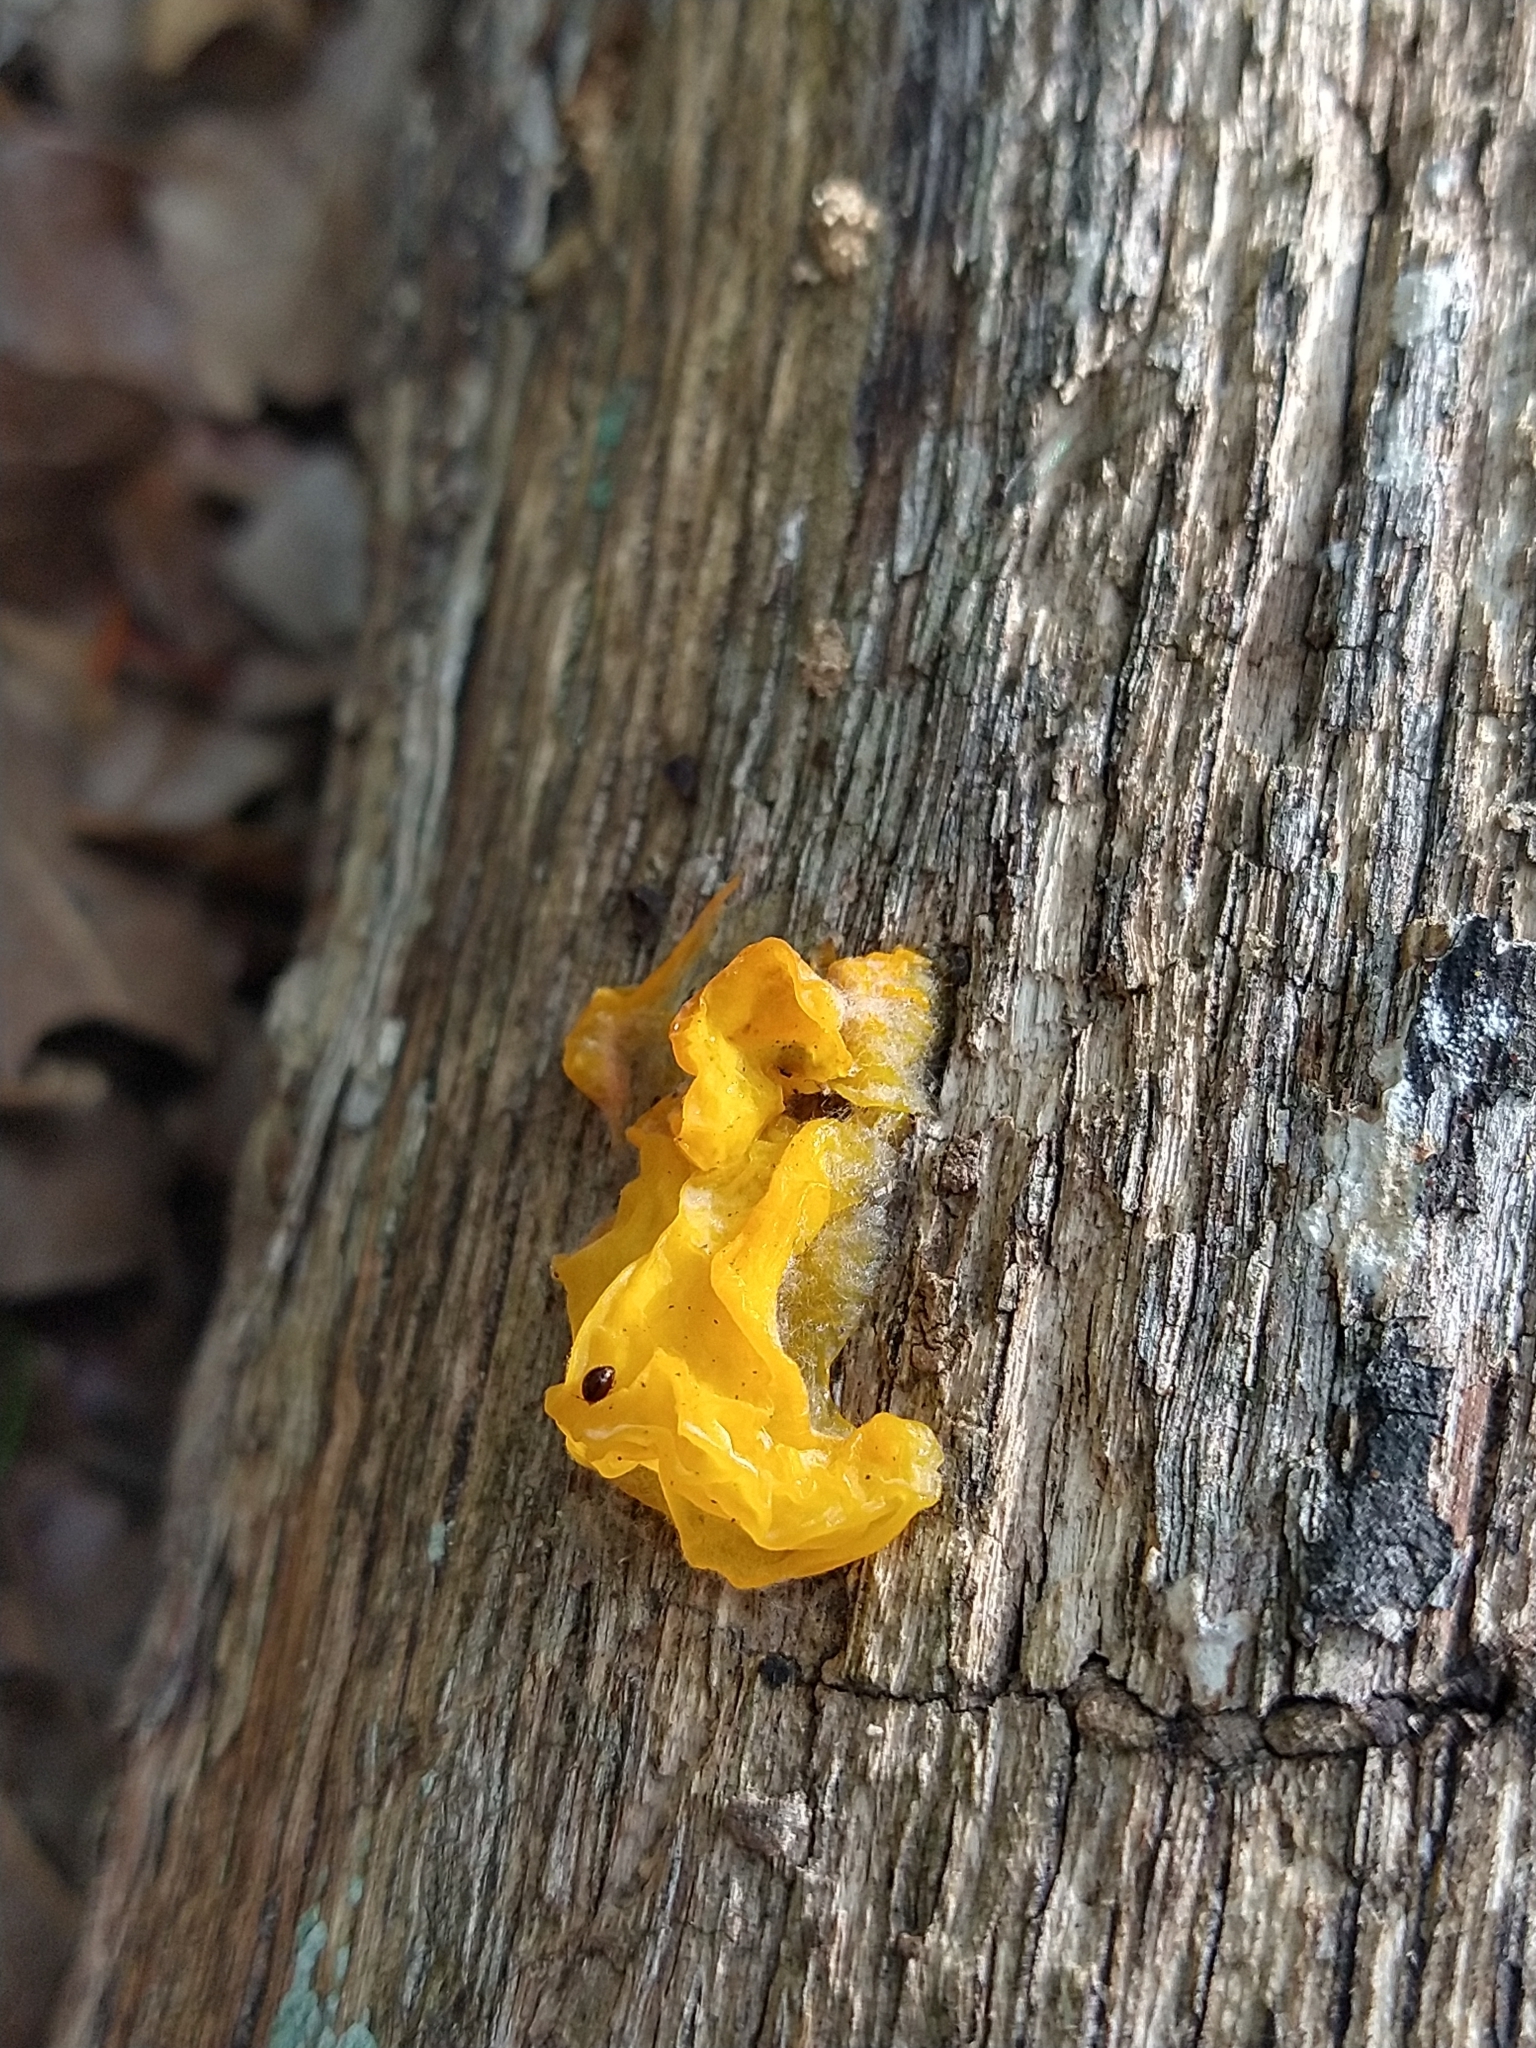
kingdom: Fungi
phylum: Basidiomycota
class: Tremellomycetes
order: Tremellales
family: Tremellaceae
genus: Tremella
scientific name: Tremella mesenterica
